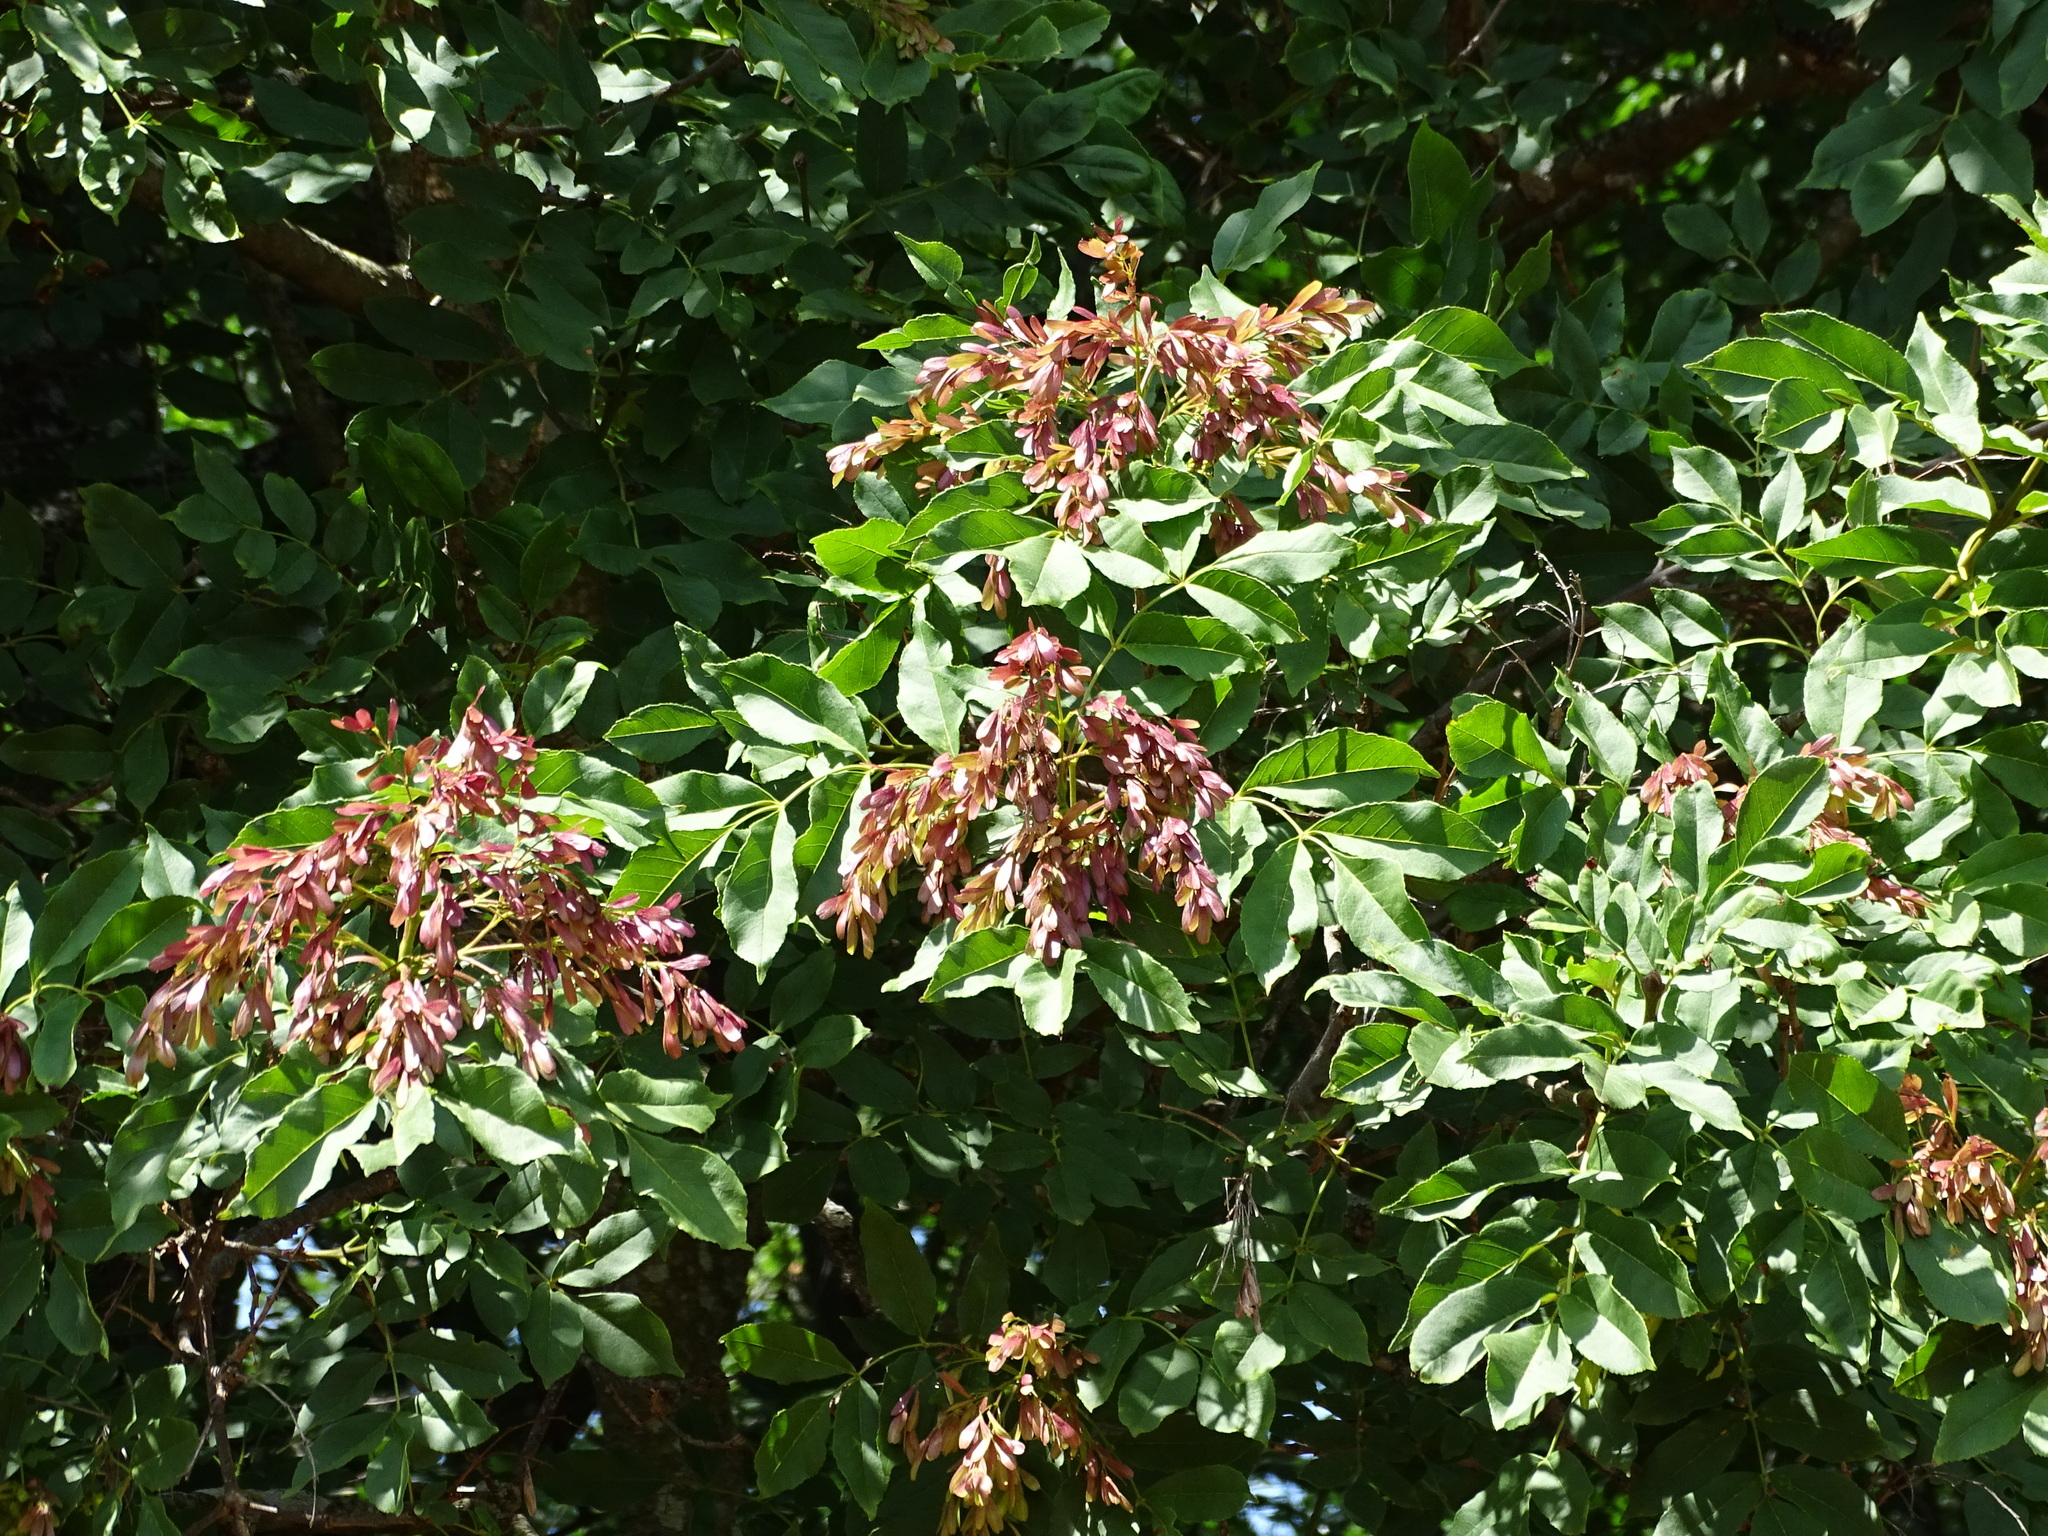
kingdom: Plantae
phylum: Tracheophyta
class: Magnoliopsida
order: Lamiales
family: Oleaceae
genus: Fraxinus
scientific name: Fraxinus ornus
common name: Manna ash
